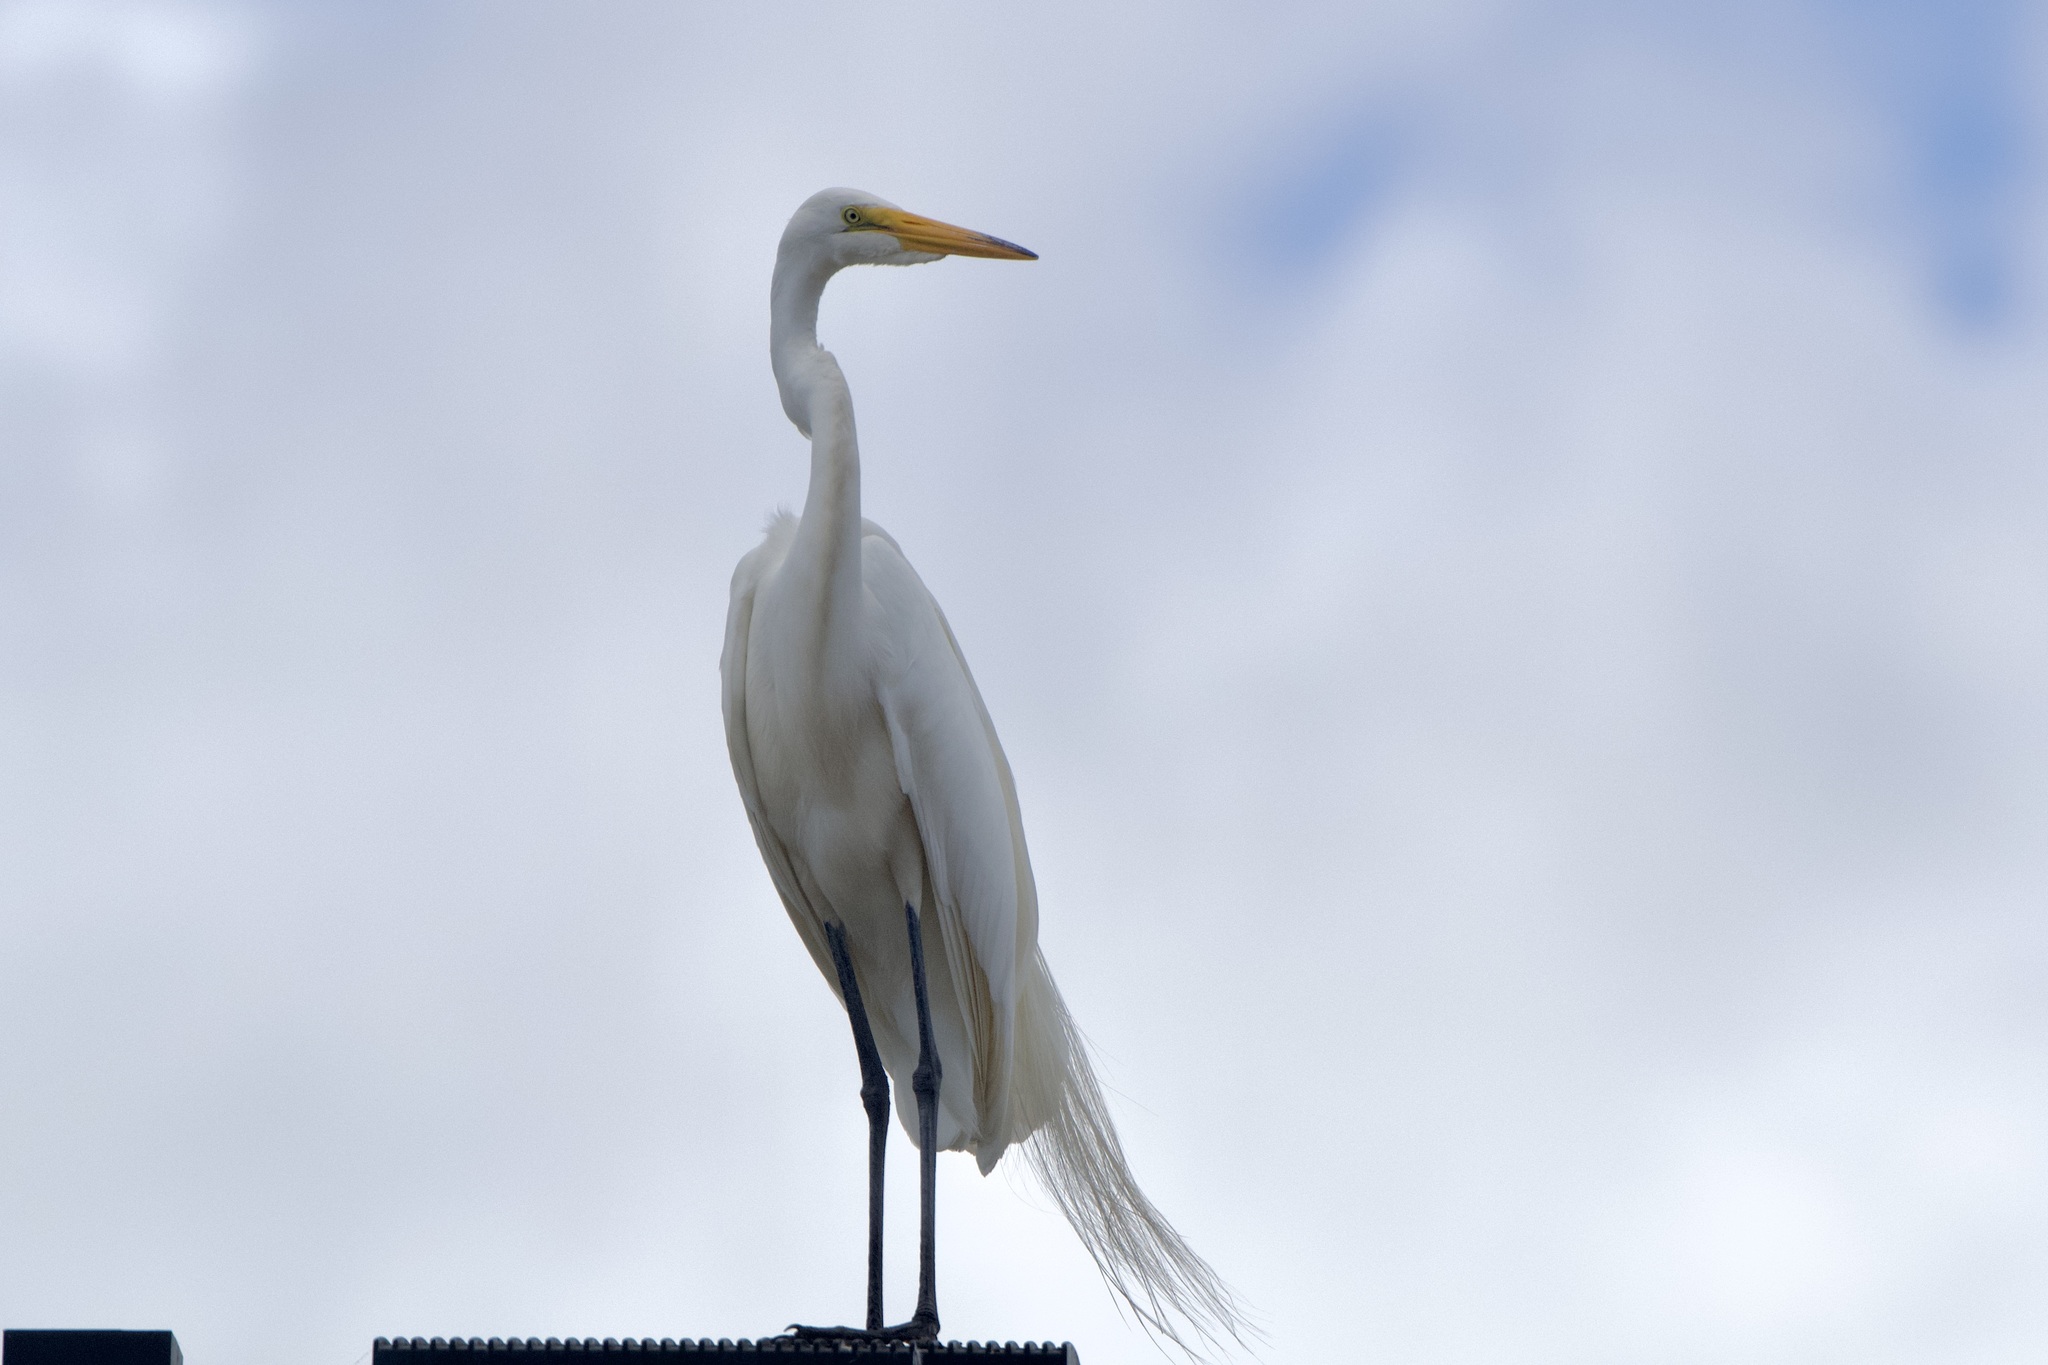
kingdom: Animalia
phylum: Chordata
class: Aves
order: Pelecaniformes
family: Ardeidae
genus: Ardea
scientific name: Ardea alba
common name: Great egret
